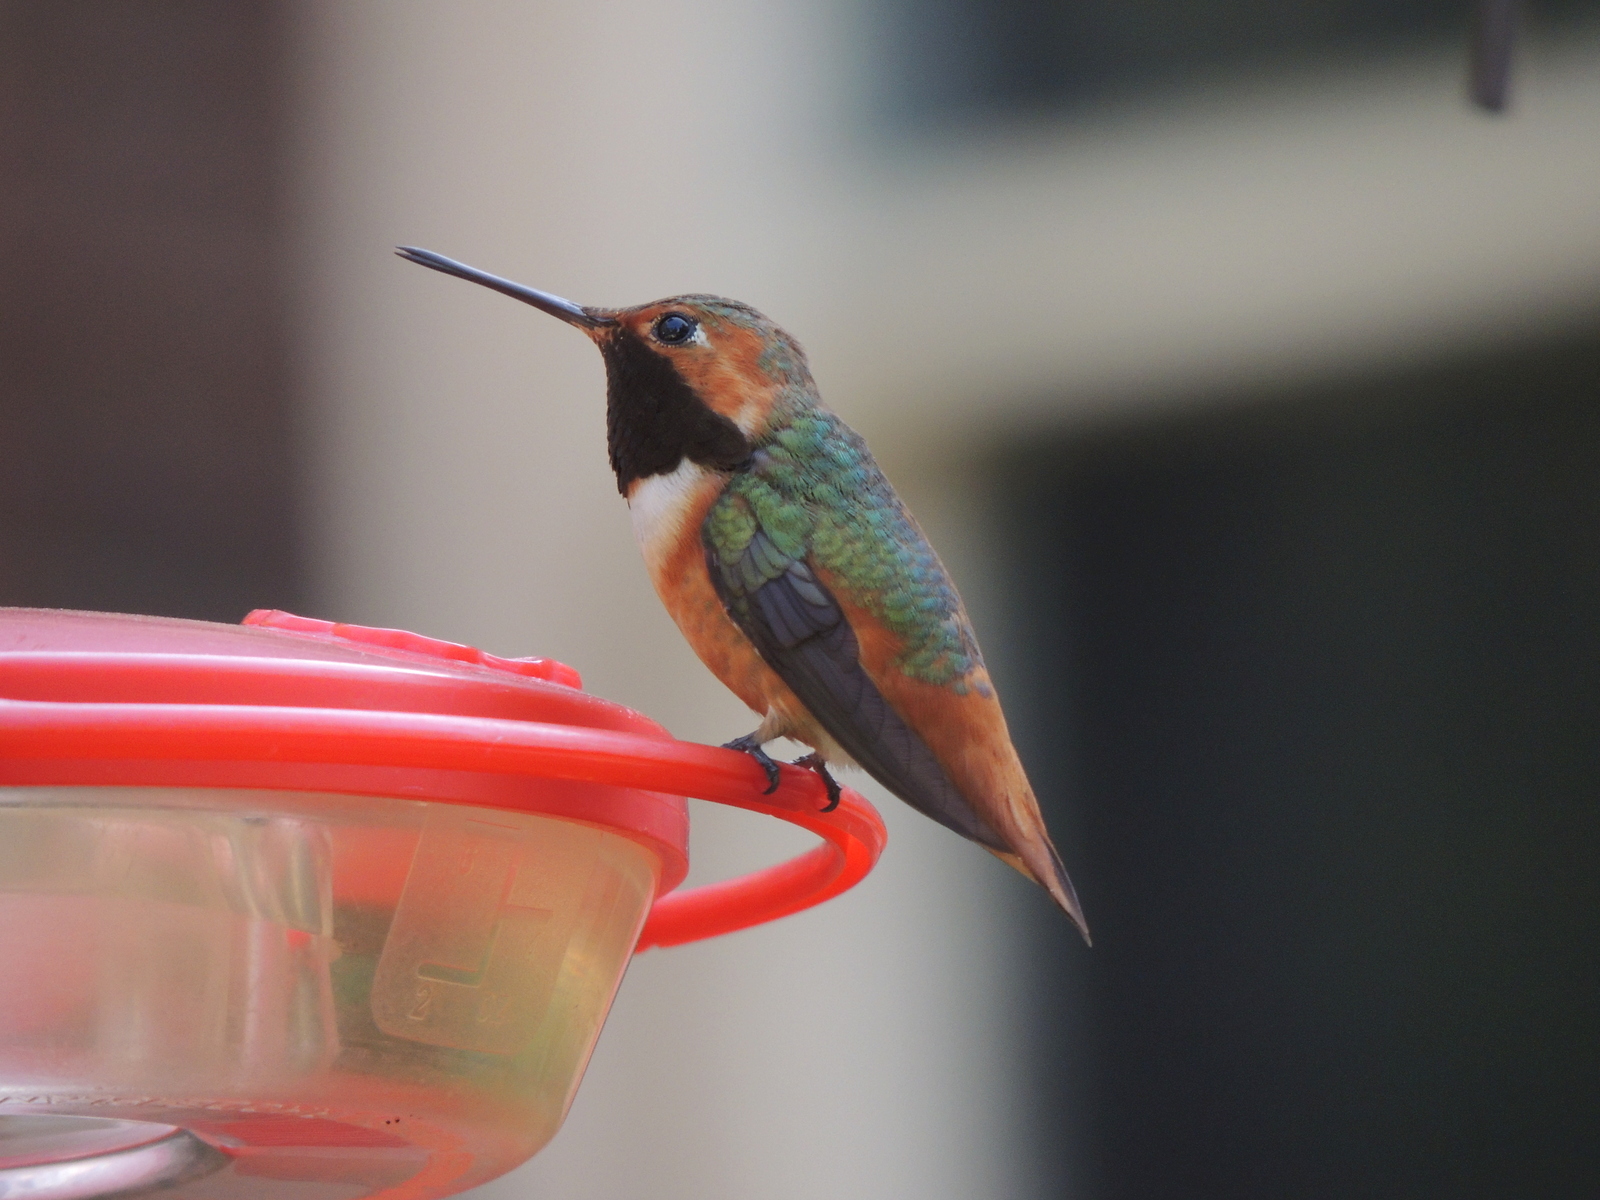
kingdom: Animalia
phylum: Chordata
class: Aves
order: Apodiformes
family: Trochilidae
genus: Selasphorus
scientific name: Selasphorus sasin
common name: Allen's hummingbird
